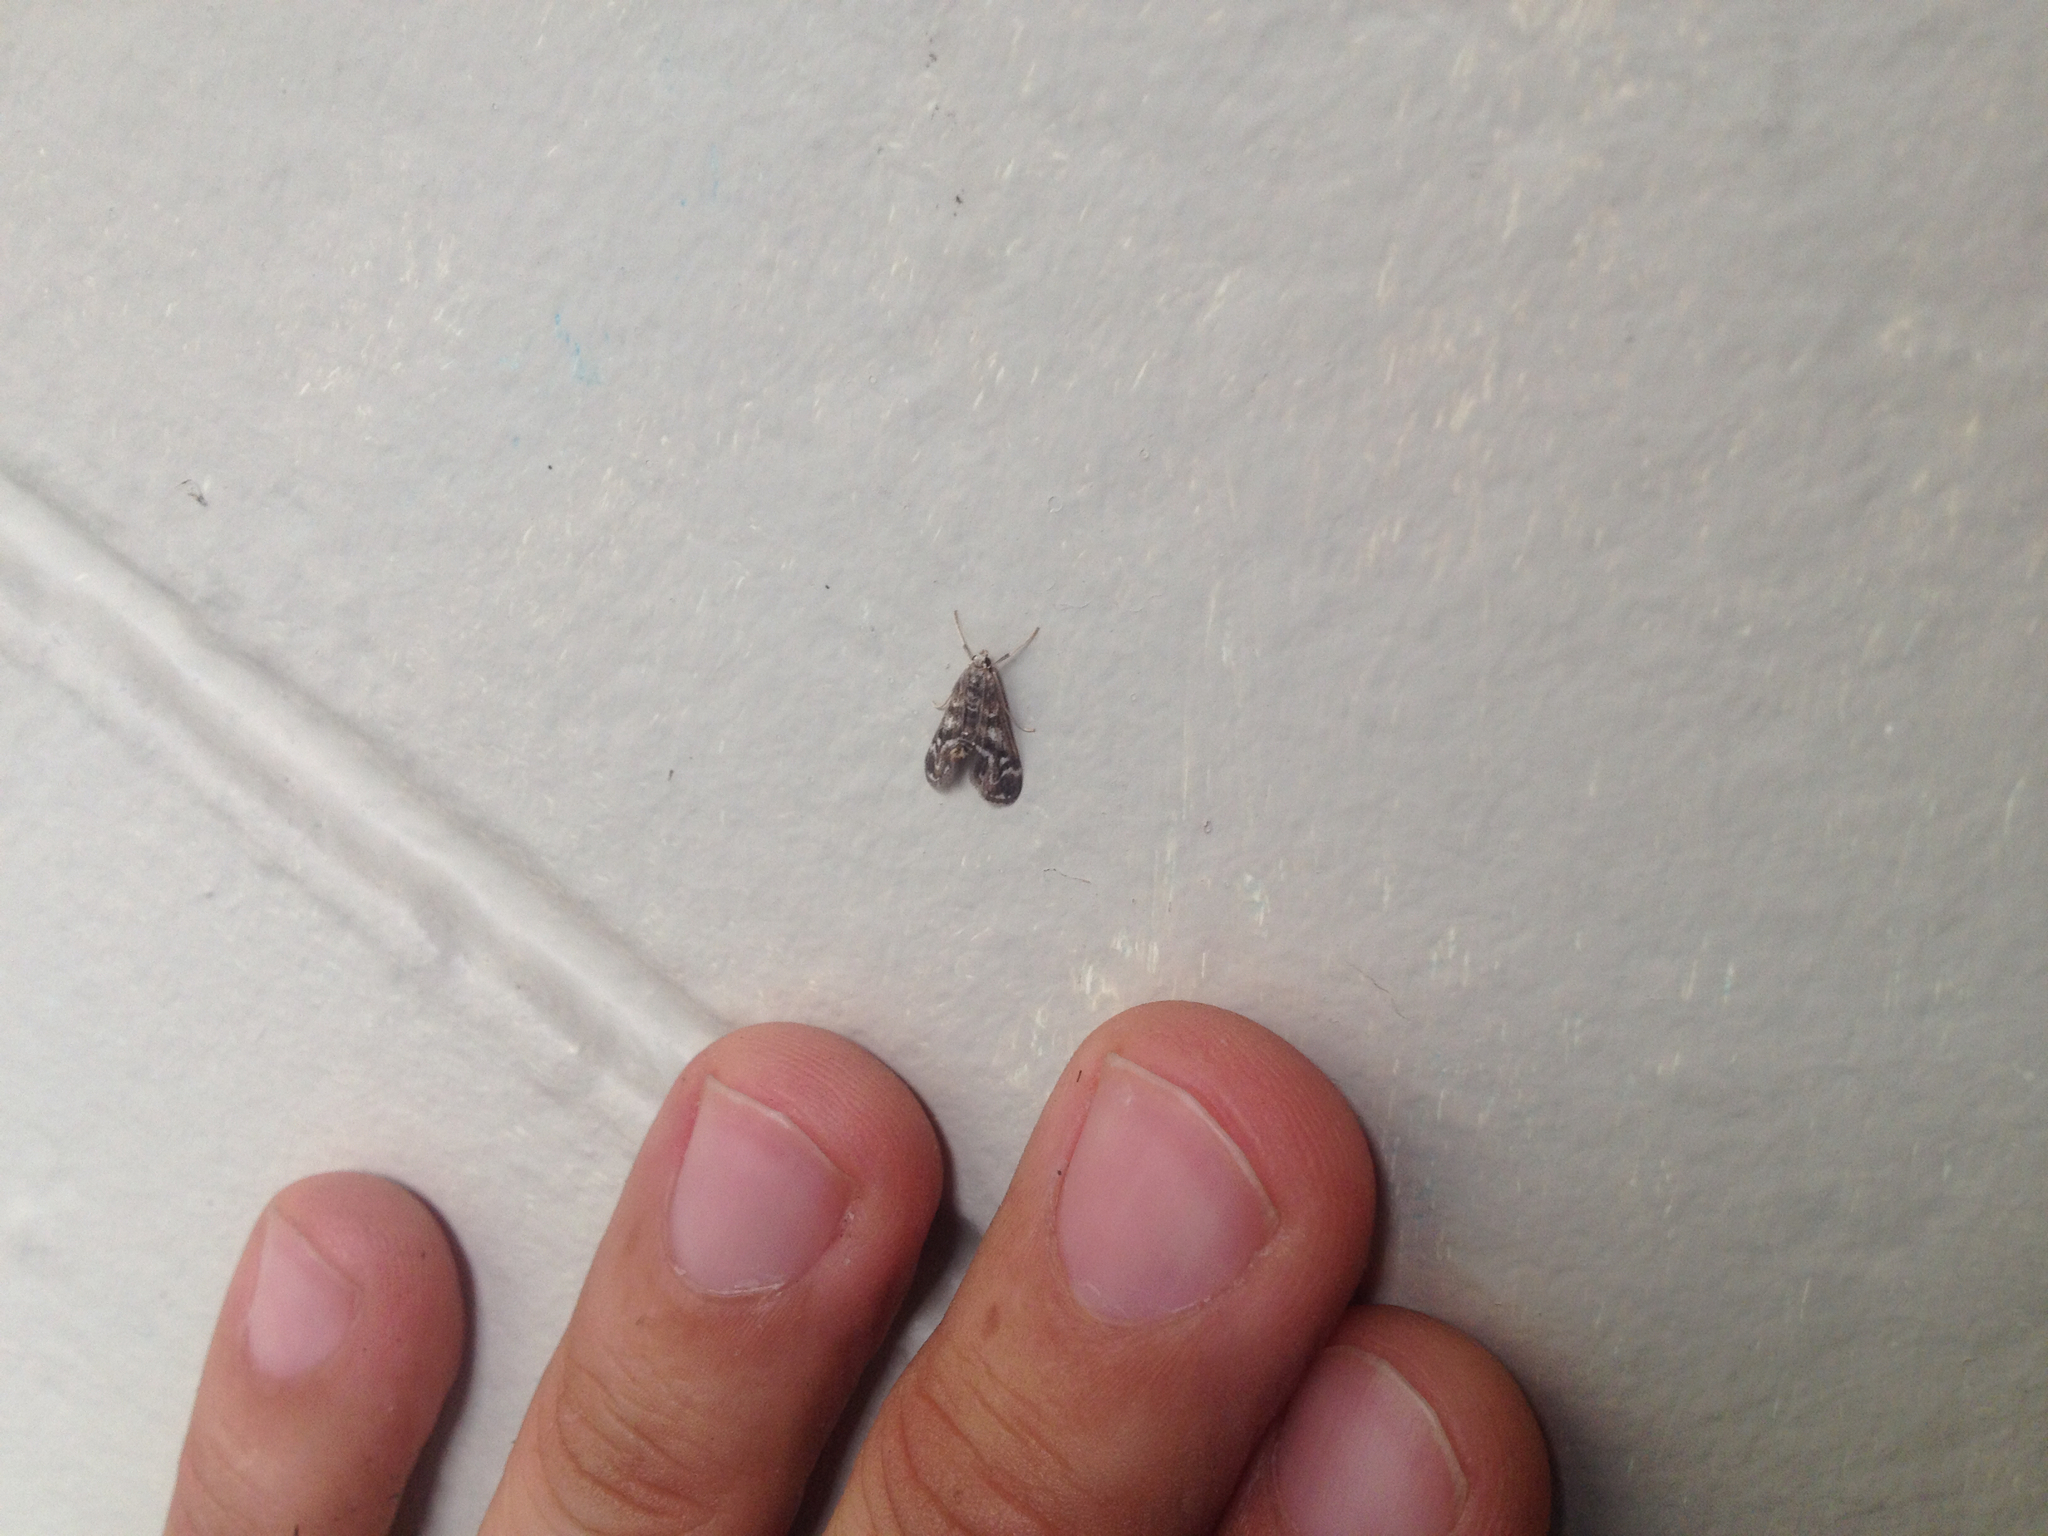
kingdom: Animalia
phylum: Arthropoda
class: Insecta
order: Lepidoptera
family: Crambidae
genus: Hygraula
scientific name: Hygraula nitens
